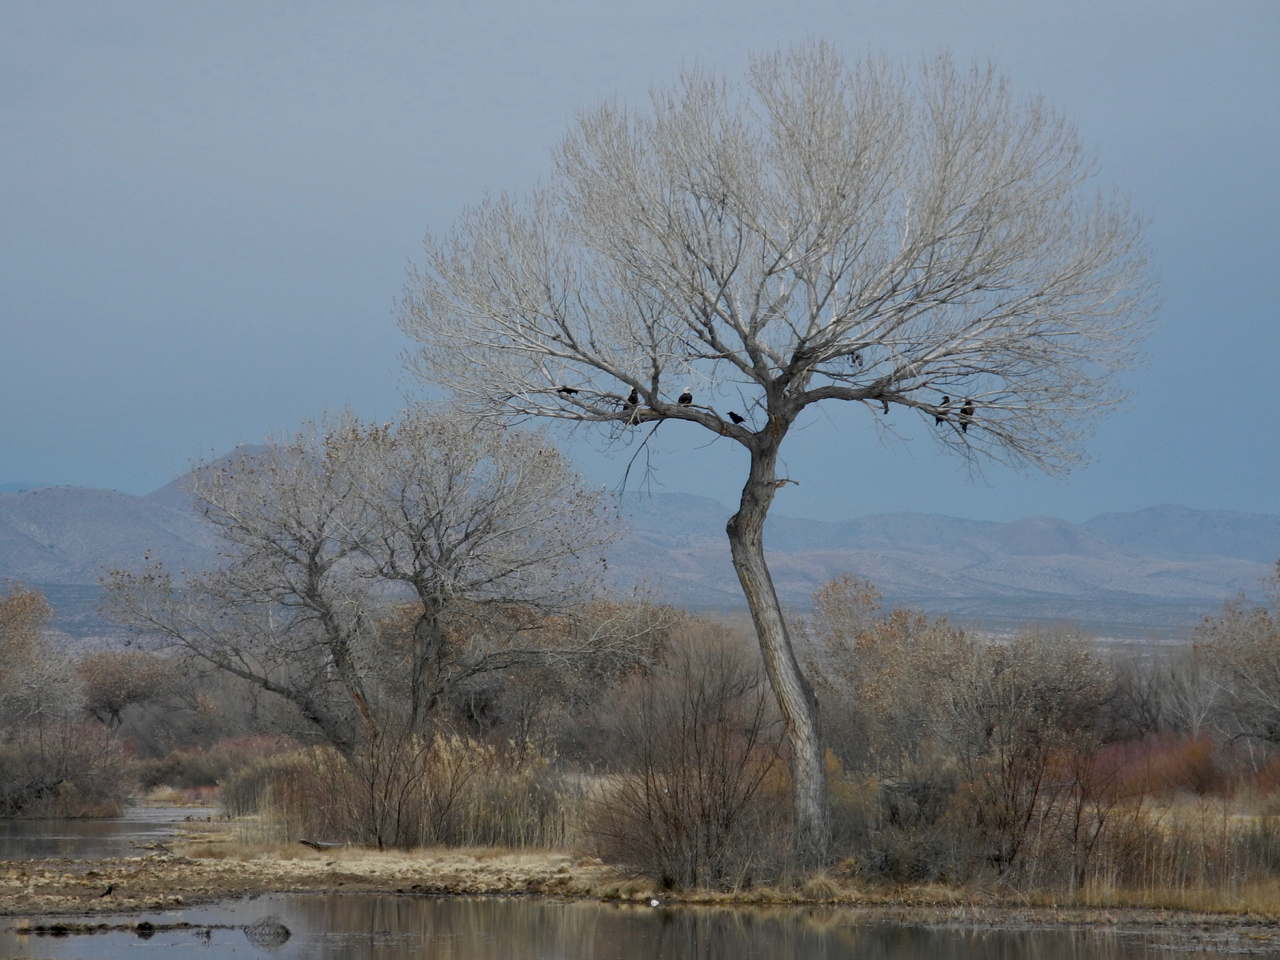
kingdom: Animalia
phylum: Chordata
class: Aves
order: Passeriformes
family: Corvidae
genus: Corvus
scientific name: Corvus corax
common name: Common raven
